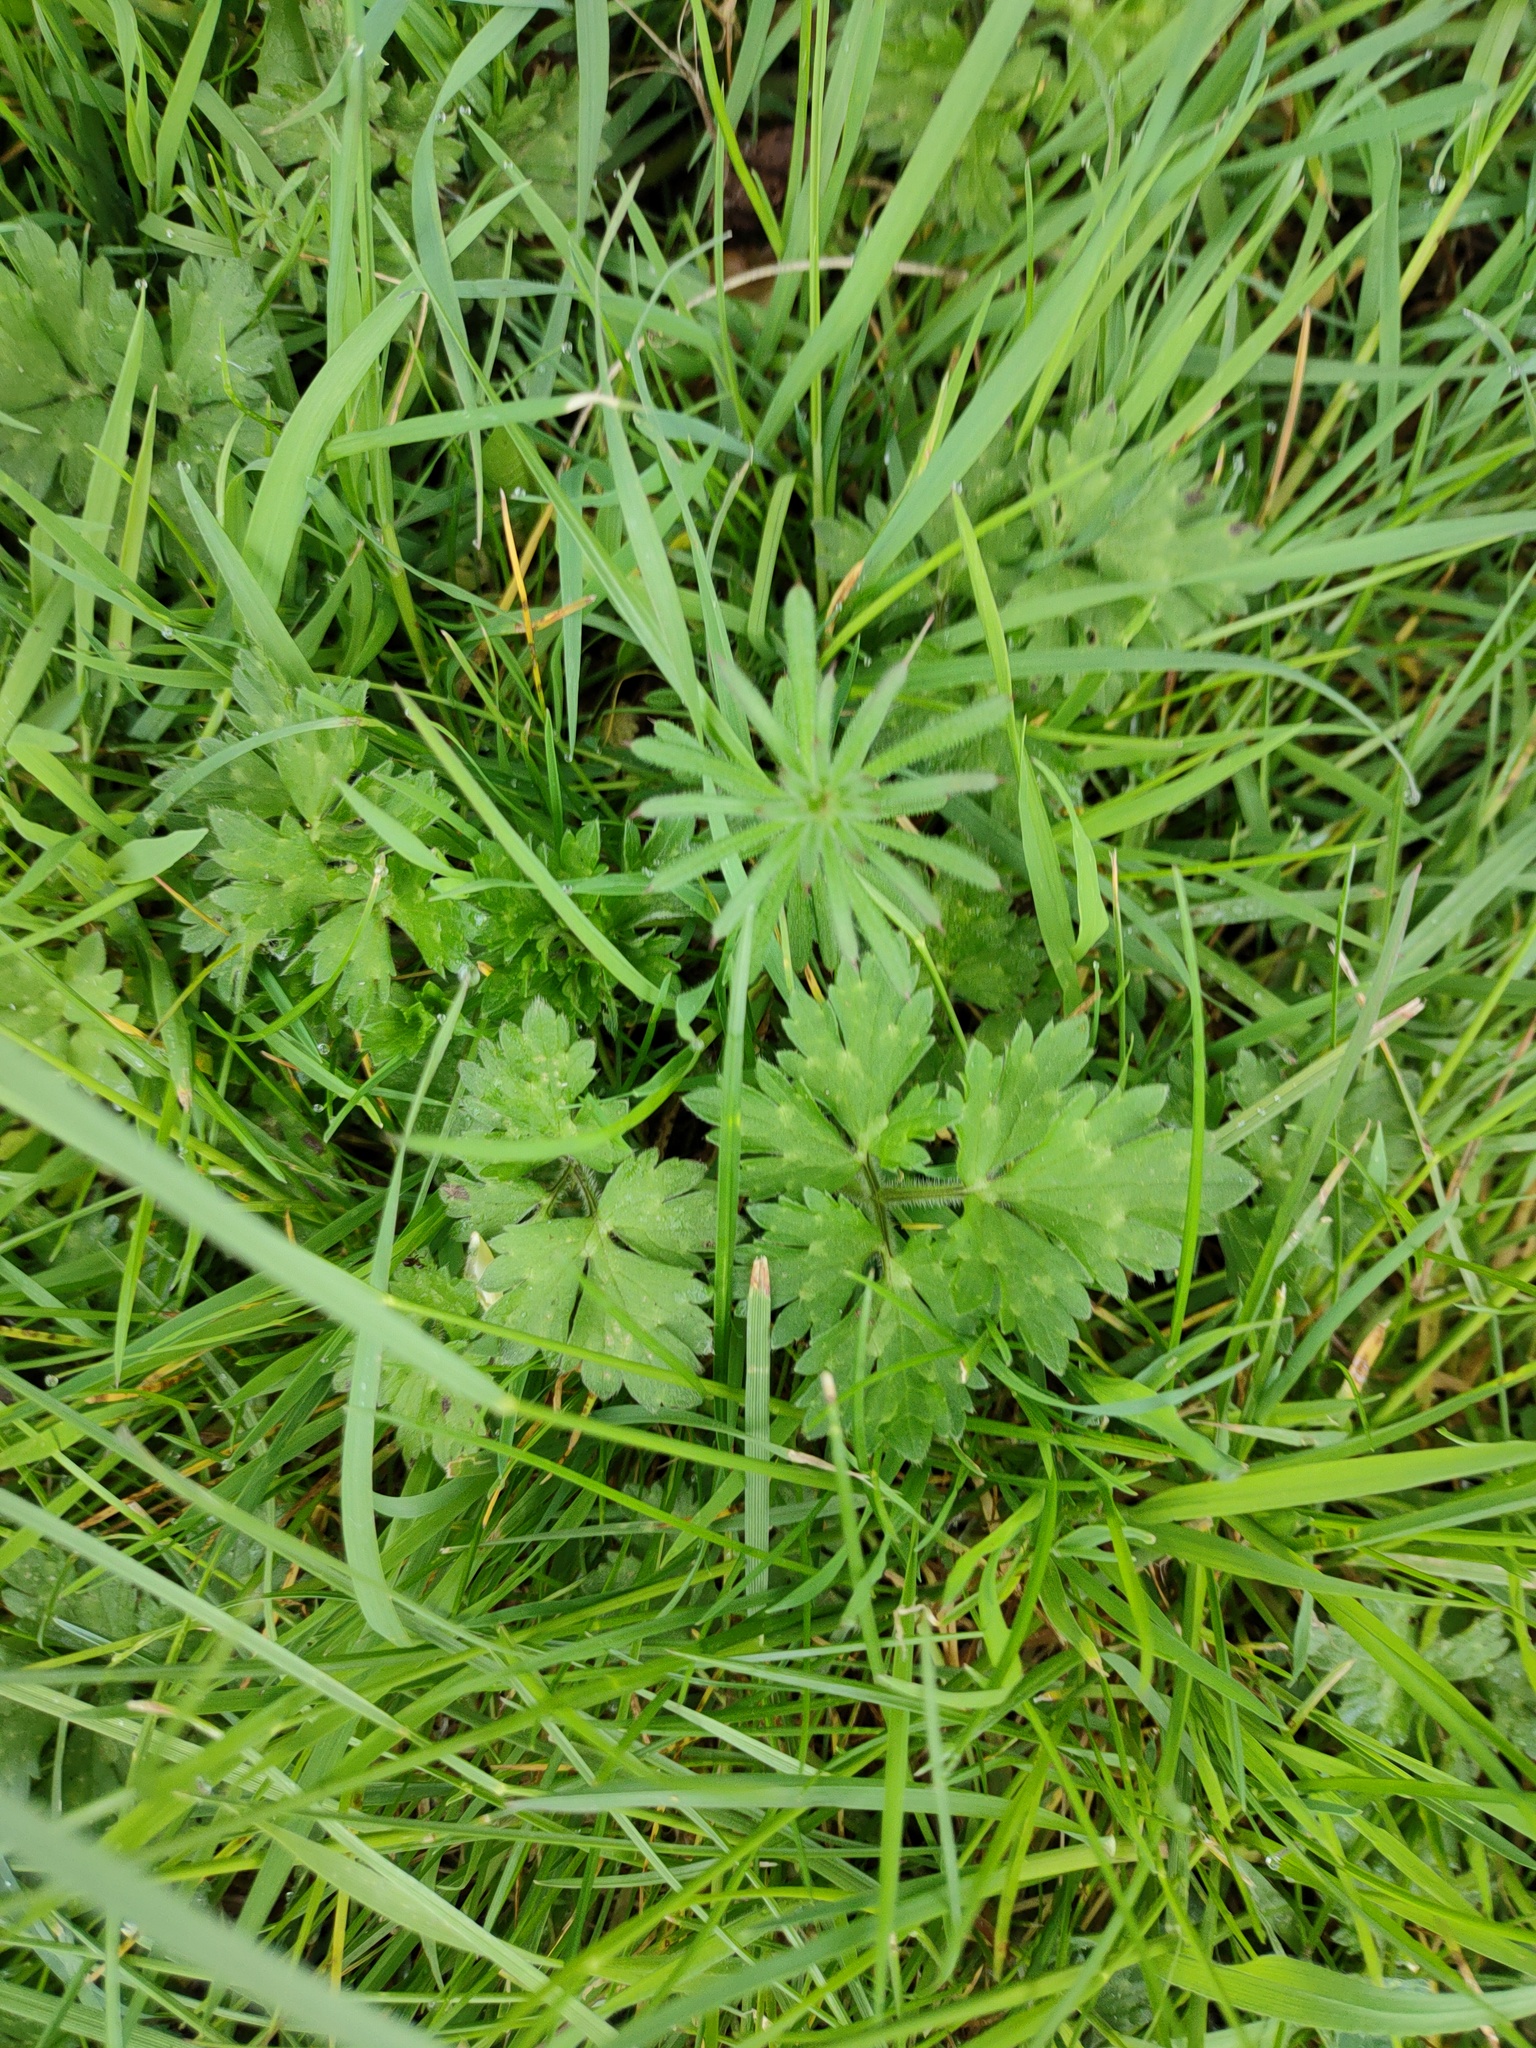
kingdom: Plantae
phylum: Tracheophyta
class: Magnoliopsida
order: Ranunculales
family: Ranunculaceae
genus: Ranunculus
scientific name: Ranunculus repens
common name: Creeping buttercup
